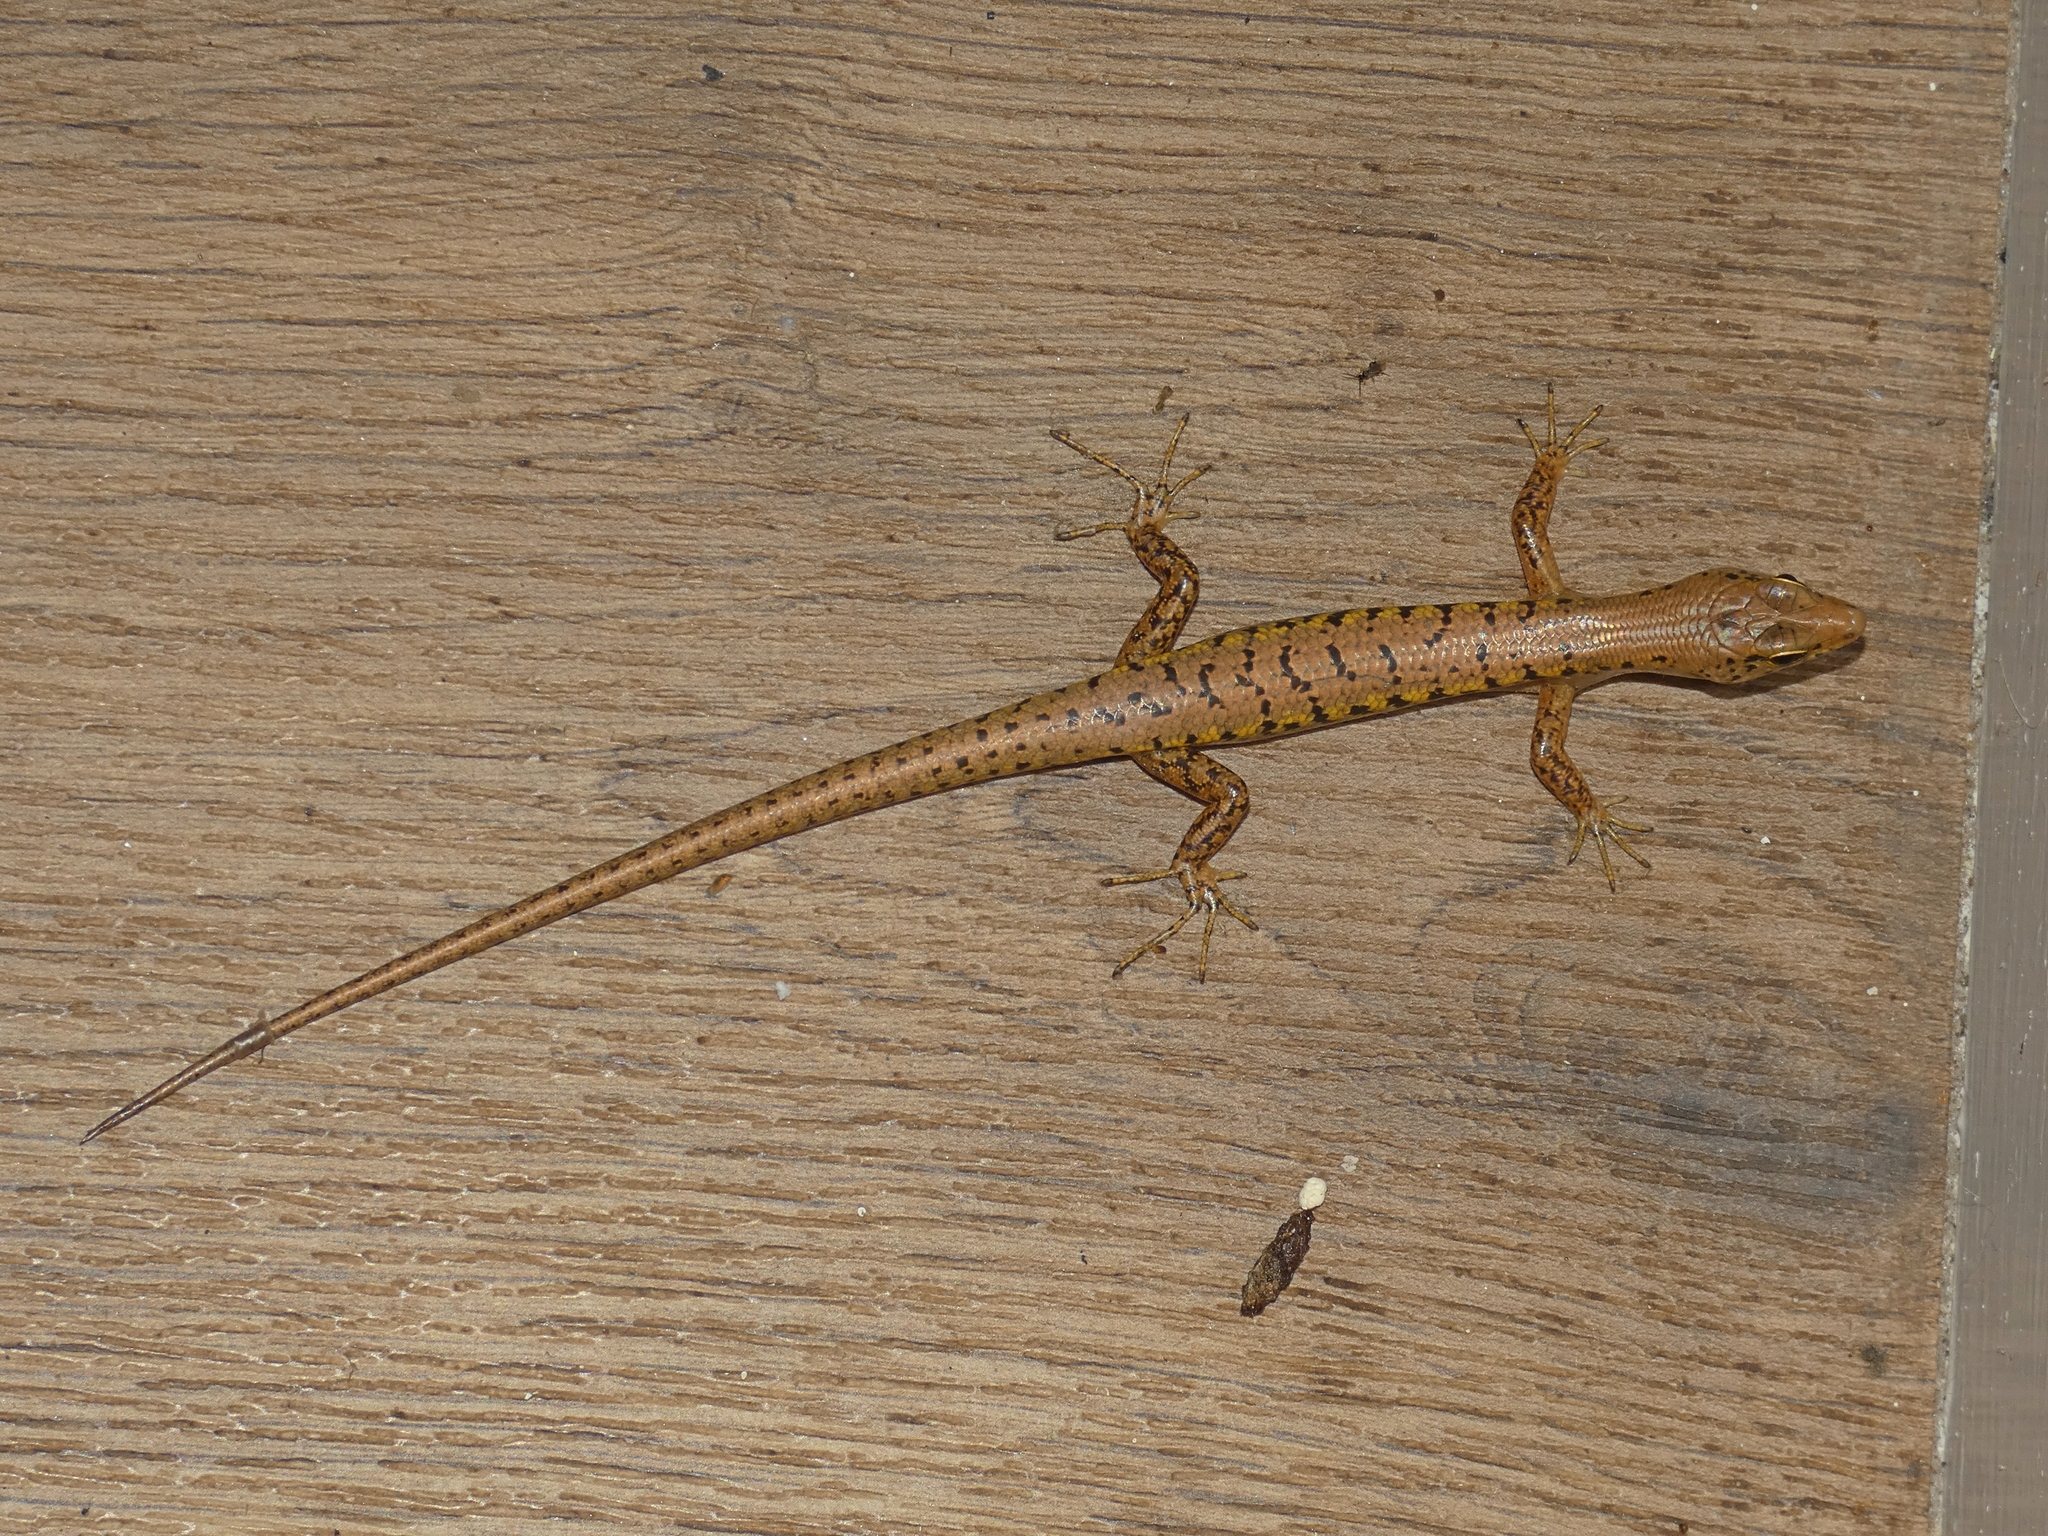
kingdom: Animalia
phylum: Chordata
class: Squamata
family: Scincidae
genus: Concinnia
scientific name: Concinnia tigrina
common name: Rainforest water-skink
